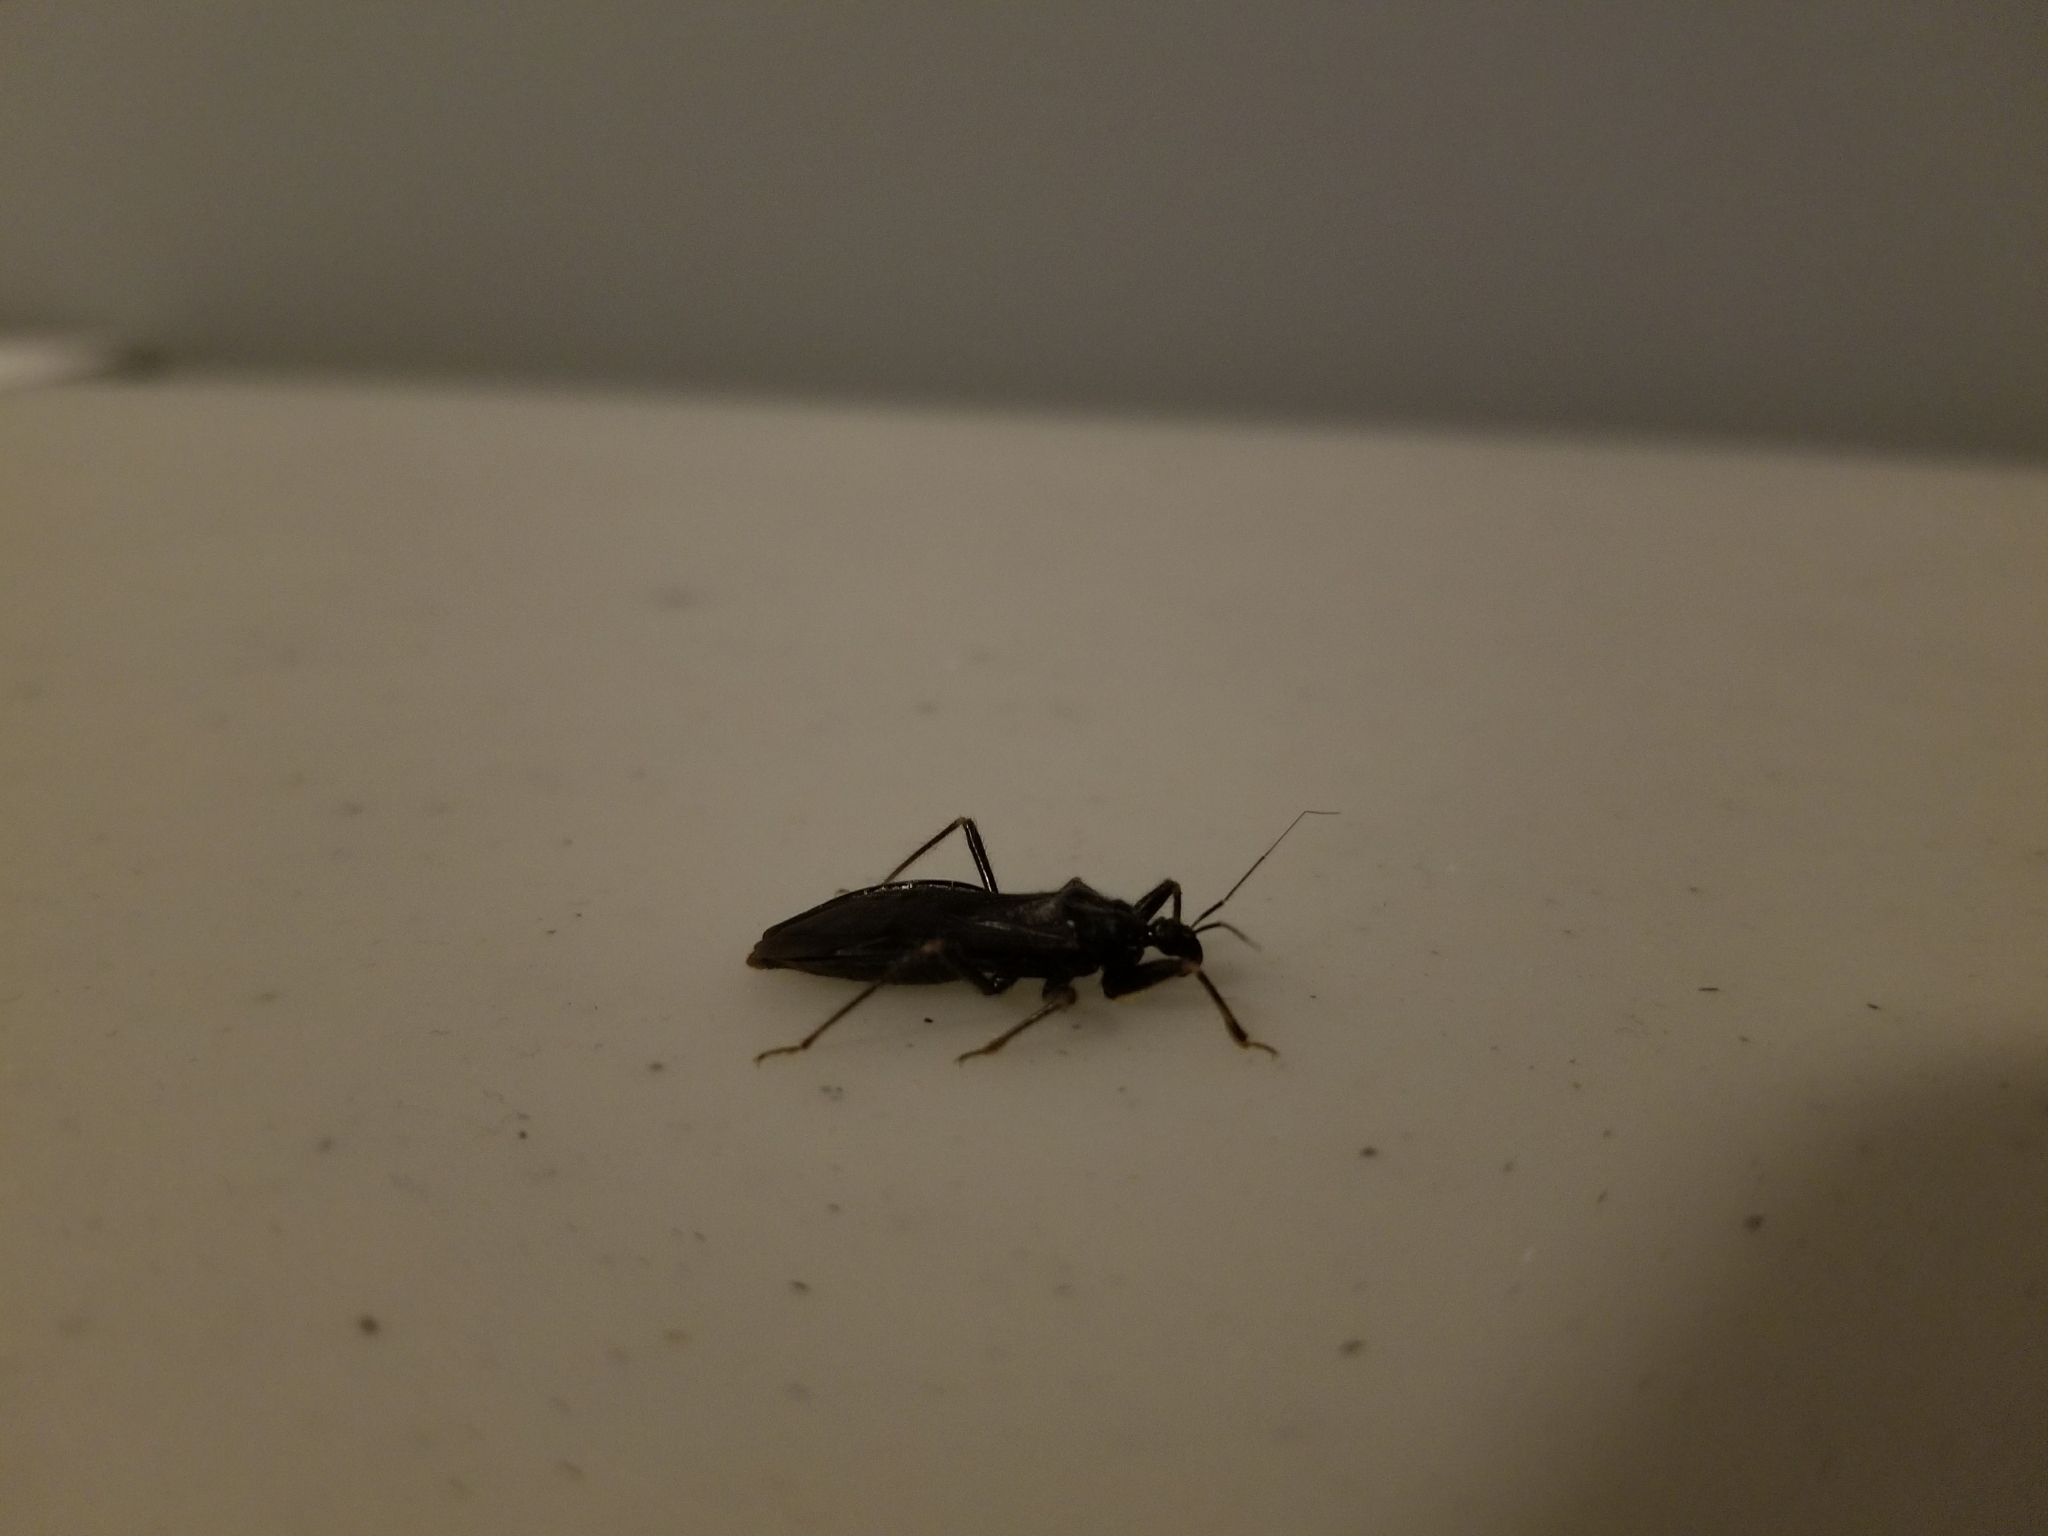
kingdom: Animalia
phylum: Arthropoda
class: Insecta
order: Hemiptera
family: Reduviidae
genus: Reduvius
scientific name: Reduvius personatus
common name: Masked hunter
